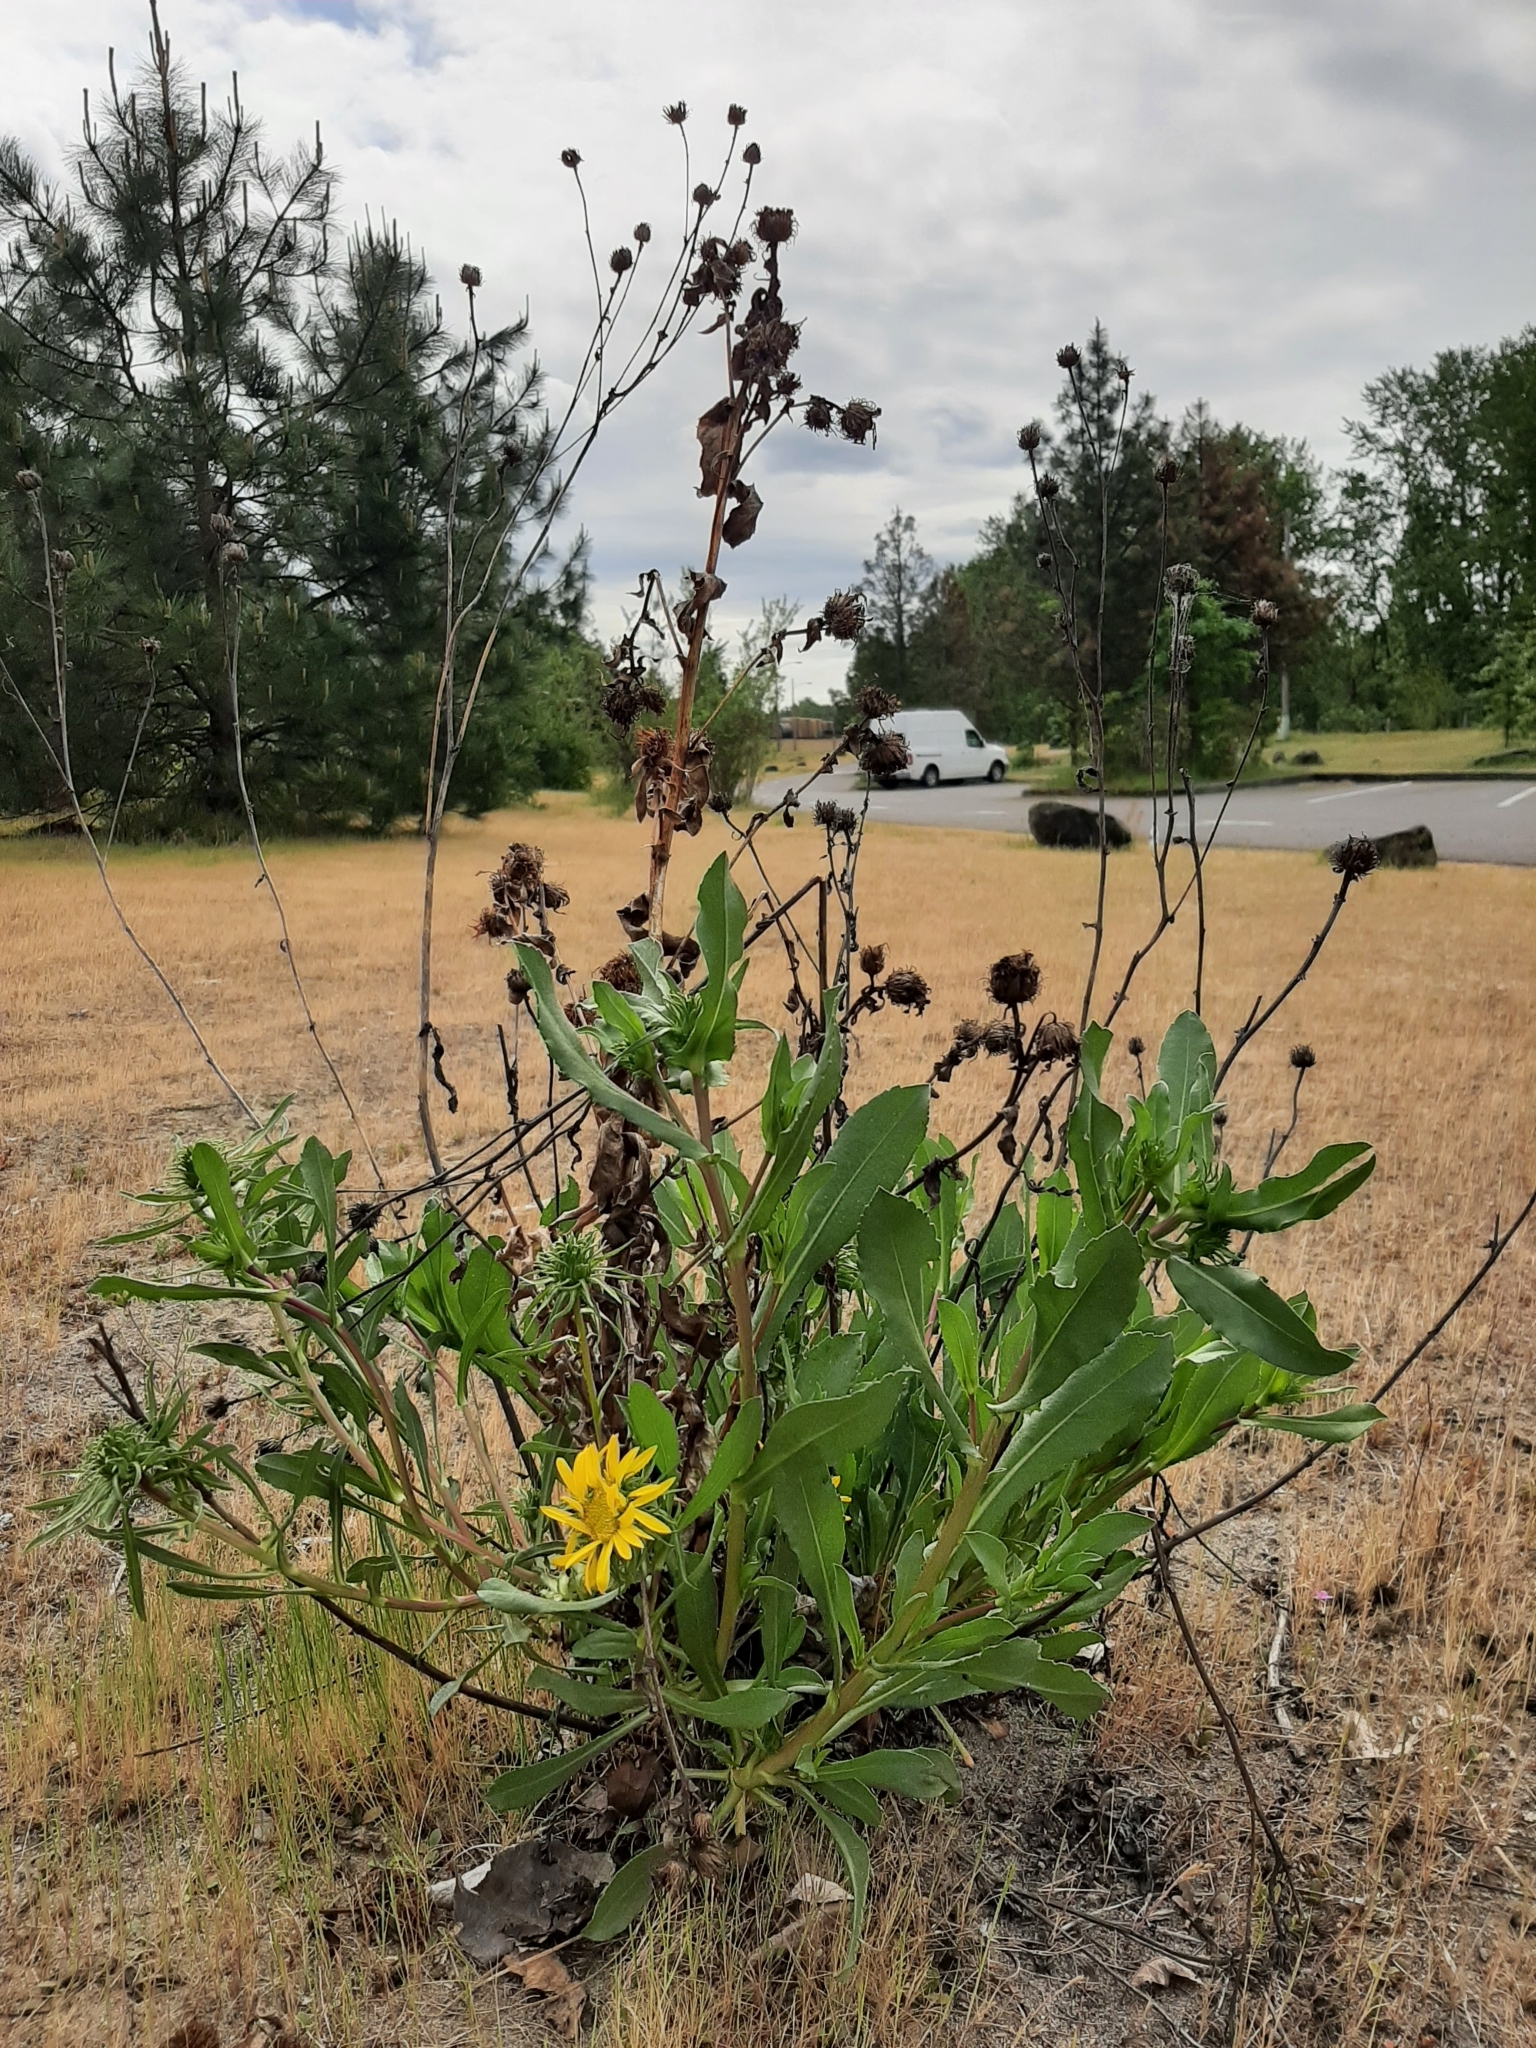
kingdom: Plantae
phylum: Tracheophyta
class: Magnoliopsida
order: Asterales
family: Asteraceae
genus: Grindelia
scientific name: Grindelia hirsutula
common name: Hairy gumweed
